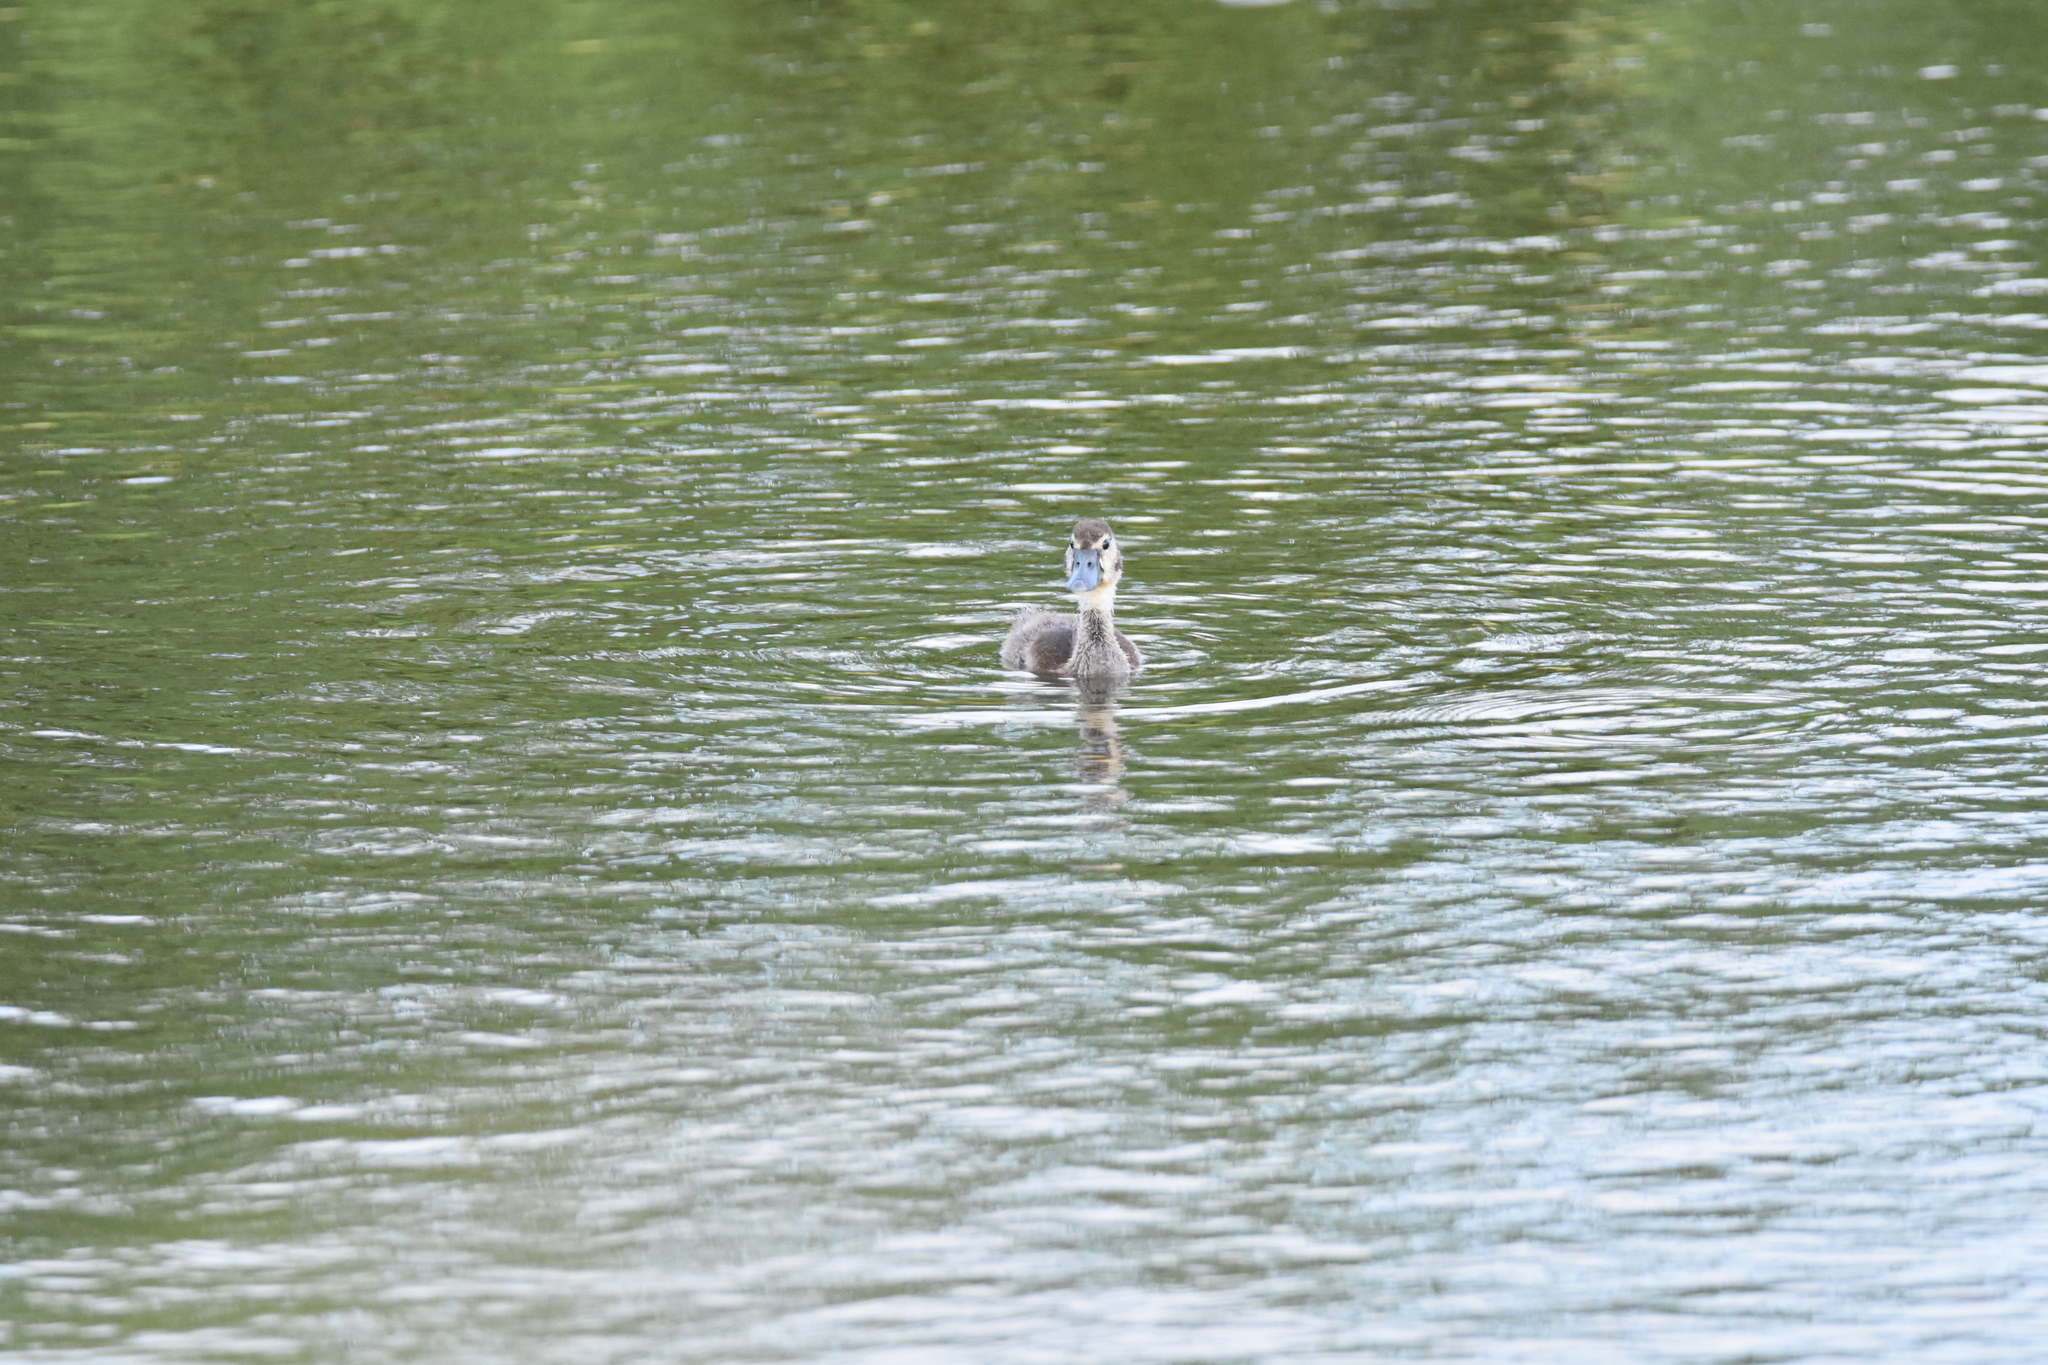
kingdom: Animalia
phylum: Chordata
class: Aves
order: Anseriformes
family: Anatidae
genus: Dendrocygna
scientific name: Dendrocygna autumnalis
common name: Black-bellied whistling duck
